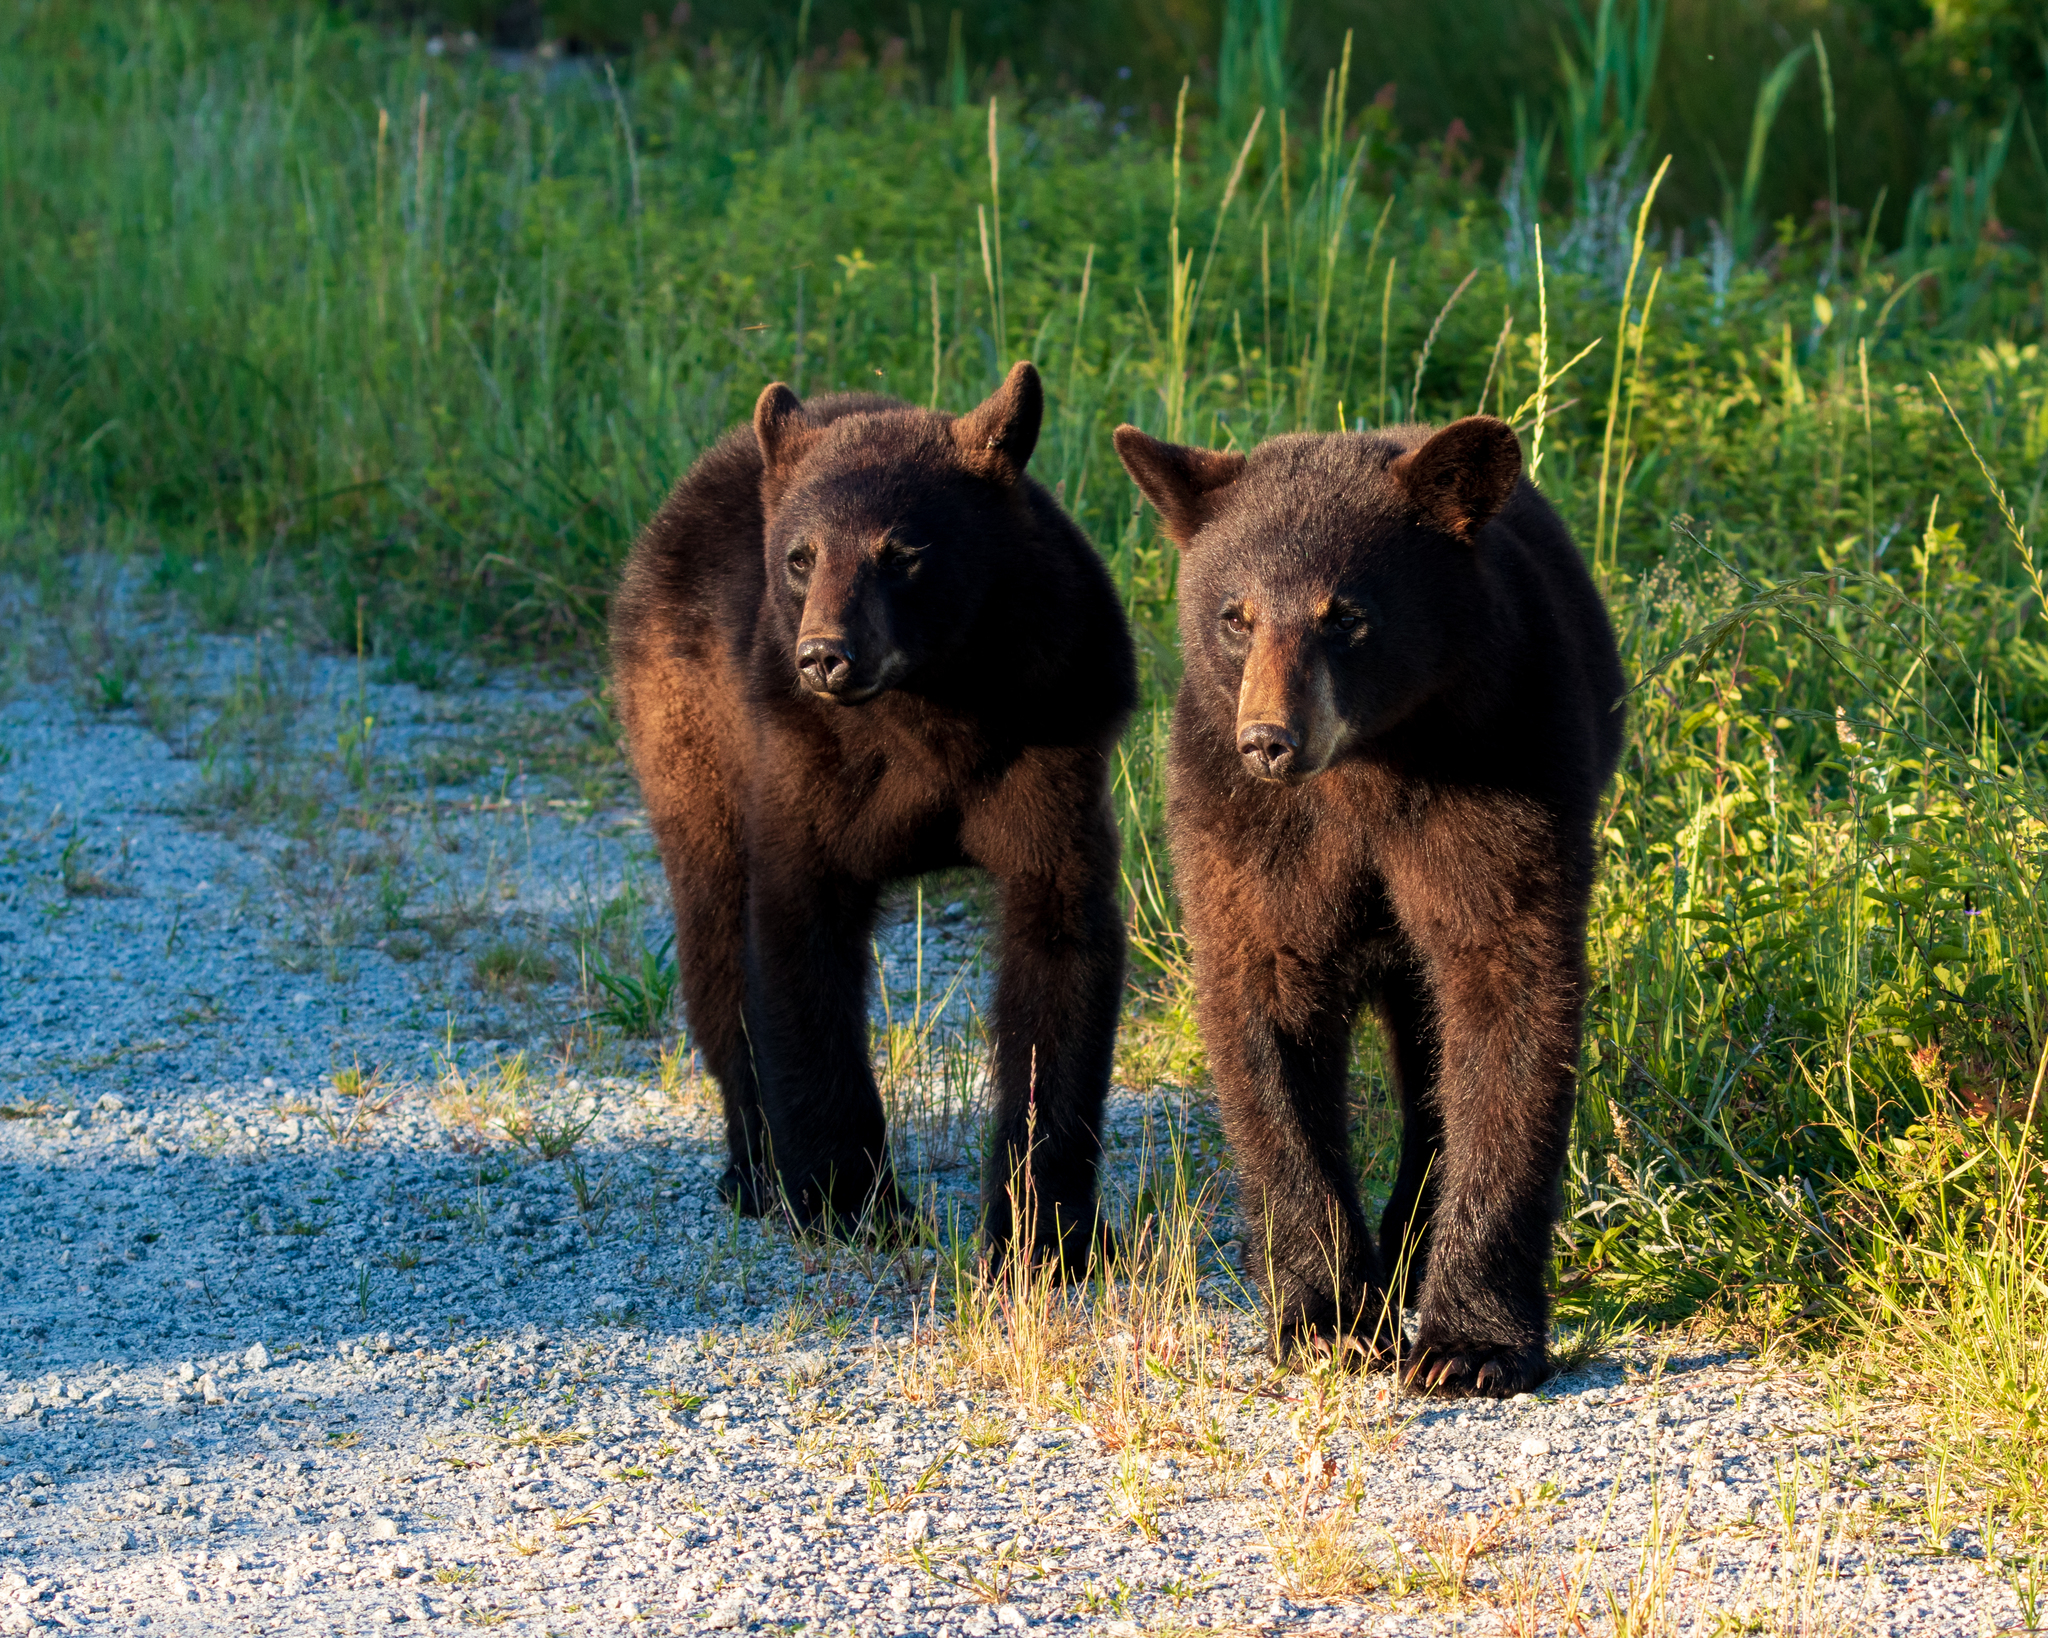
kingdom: Animalia
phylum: Chordata
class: Mammalia
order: Carnivora
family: Ursidae
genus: Ursus
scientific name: Ursus americanus
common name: American black bear
